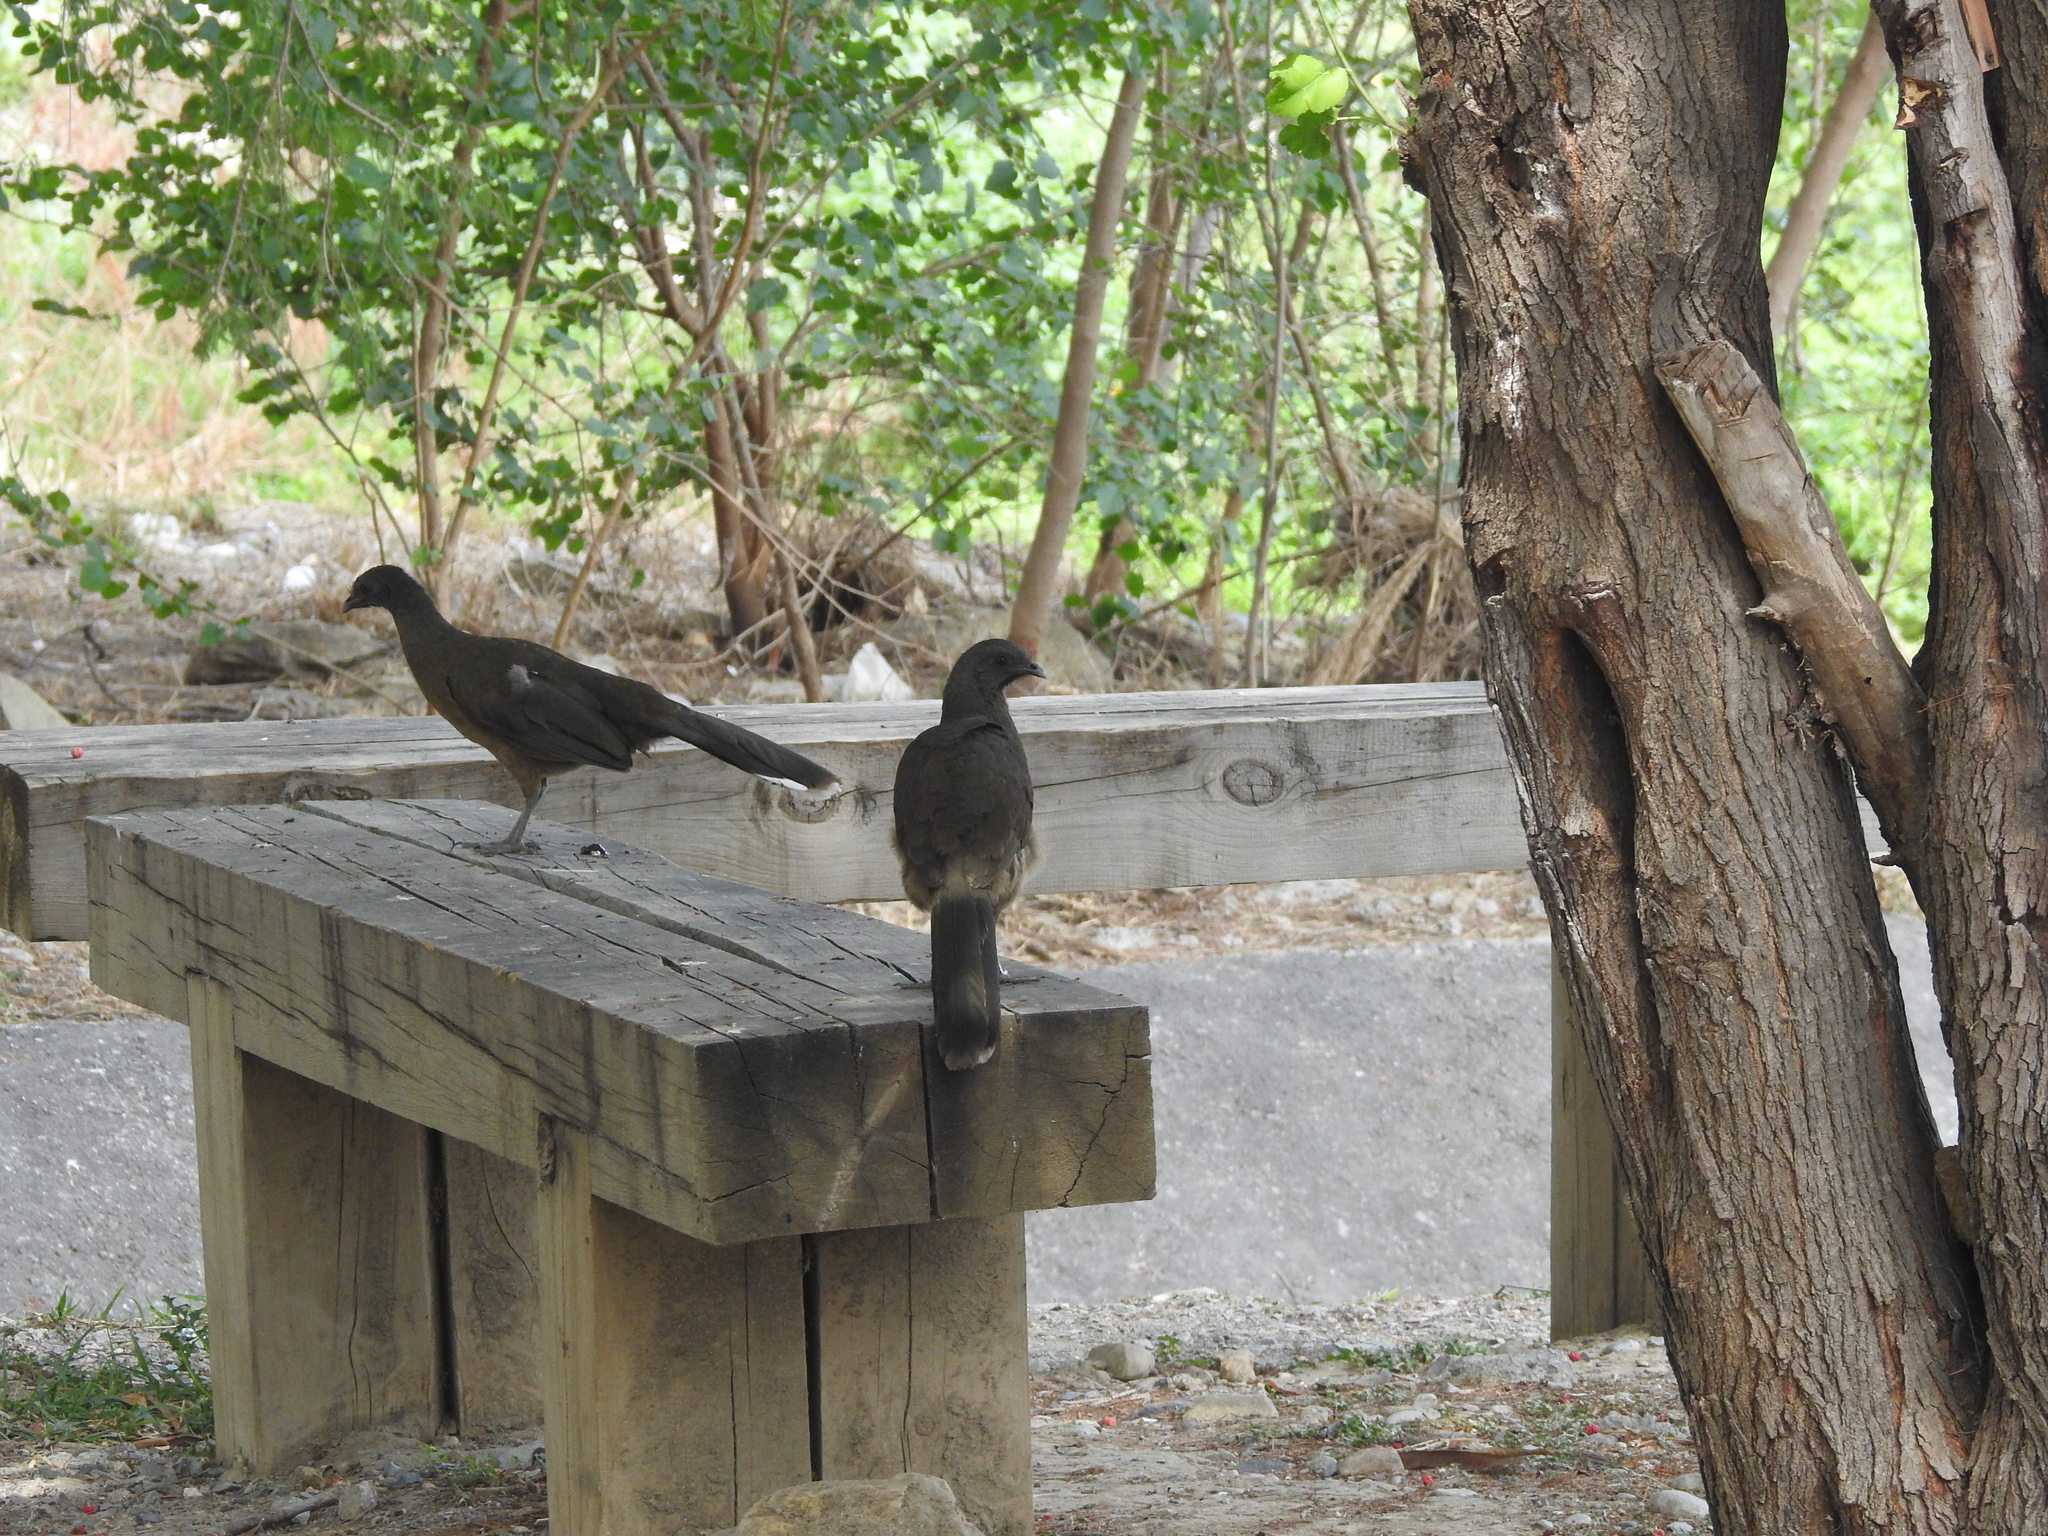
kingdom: Animalia
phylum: Chordata
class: Aves
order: Galliformes
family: Cracidae
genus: Ortalis
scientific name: Ortalis vetula
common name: Plain chachalaca
